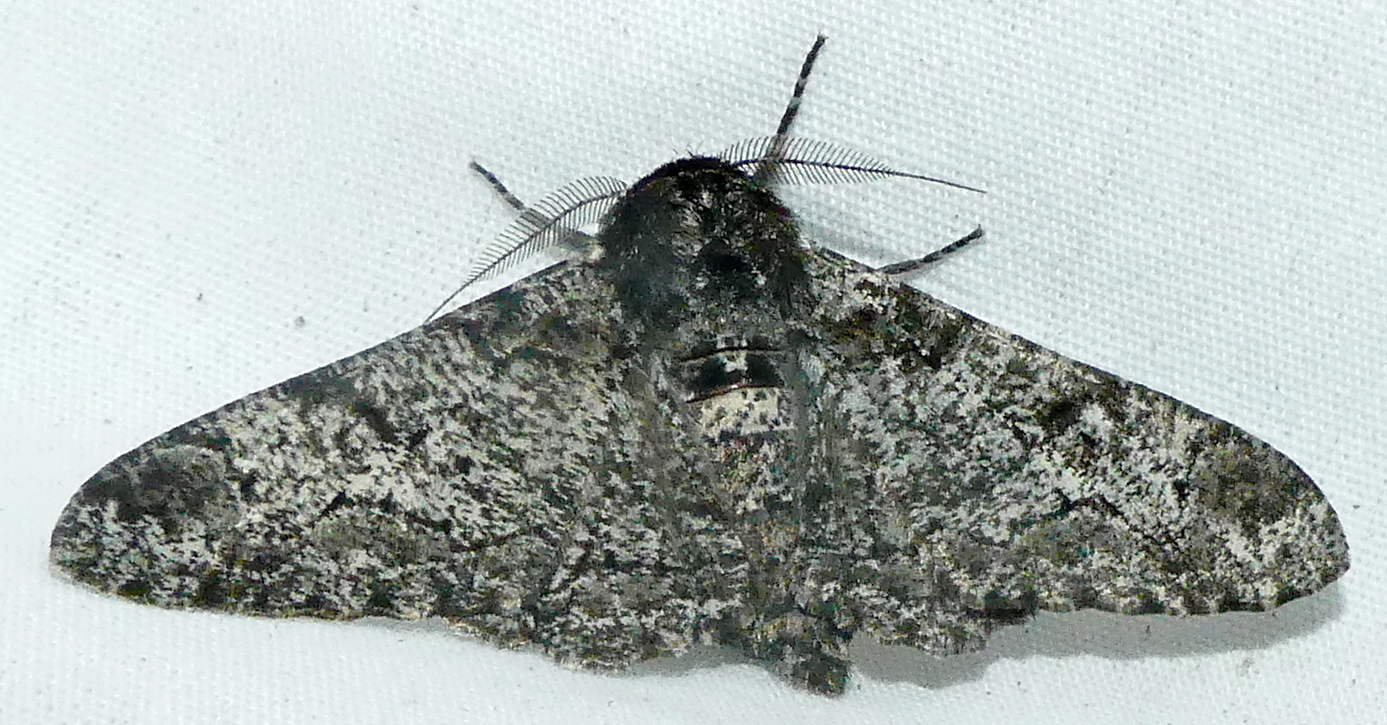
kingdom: Animalia
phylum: Arthropoda
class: Insecta
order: Lepidoptera
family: Geometridae
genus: Biston
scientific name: Biston betularia
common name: Peppered moth
